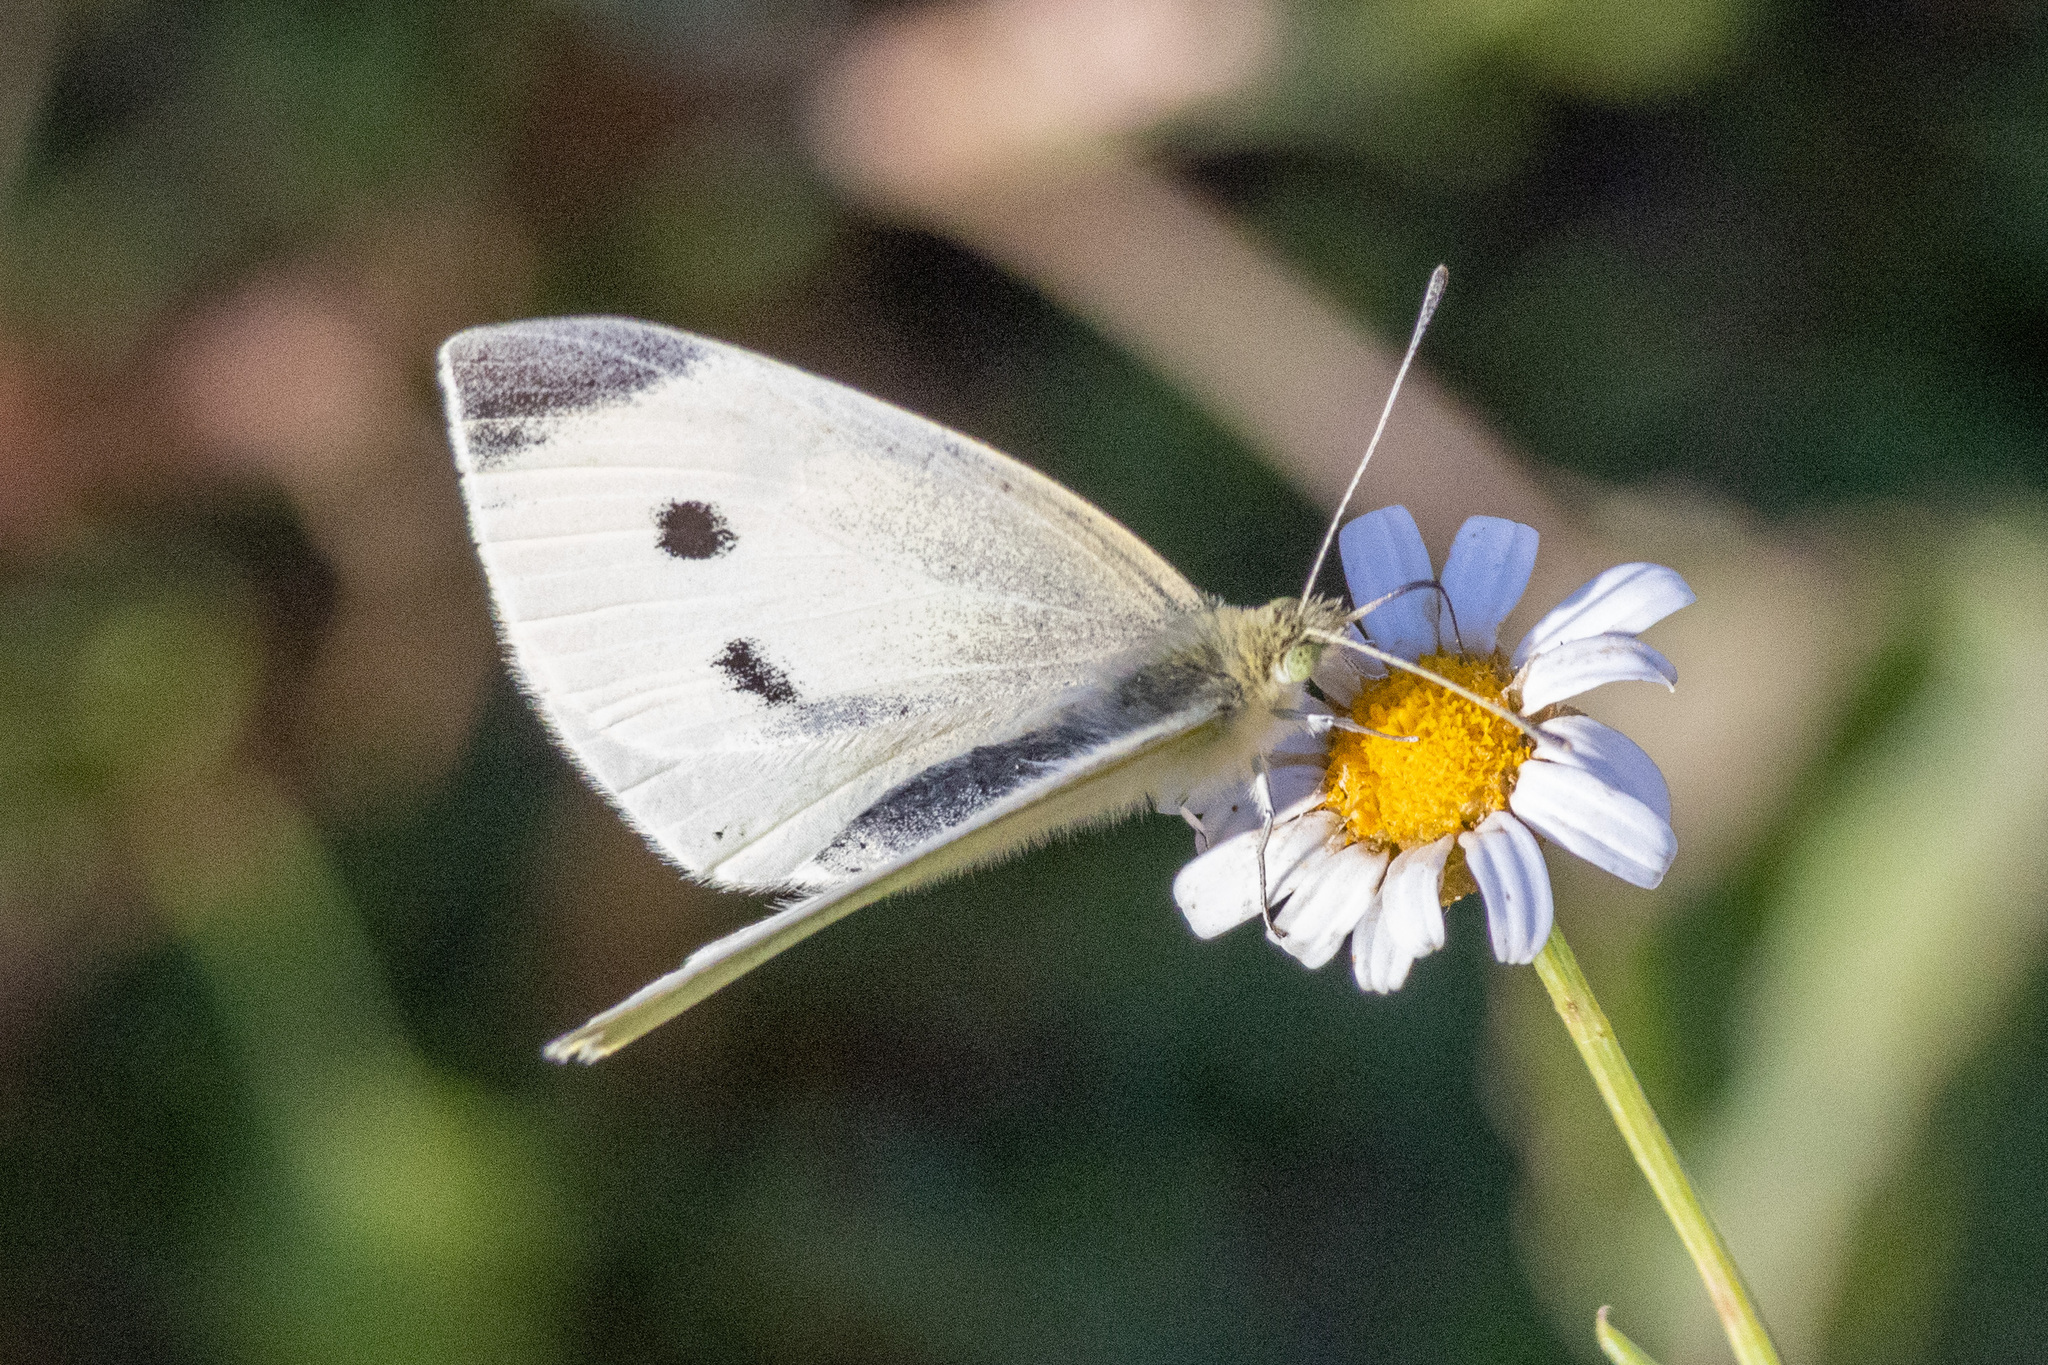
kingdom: Animalia
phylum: Arthropoda
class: Insecta
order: Lepidoptera
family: Pieridae
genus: Pieris
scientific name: Pieris rapae
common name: Small white
